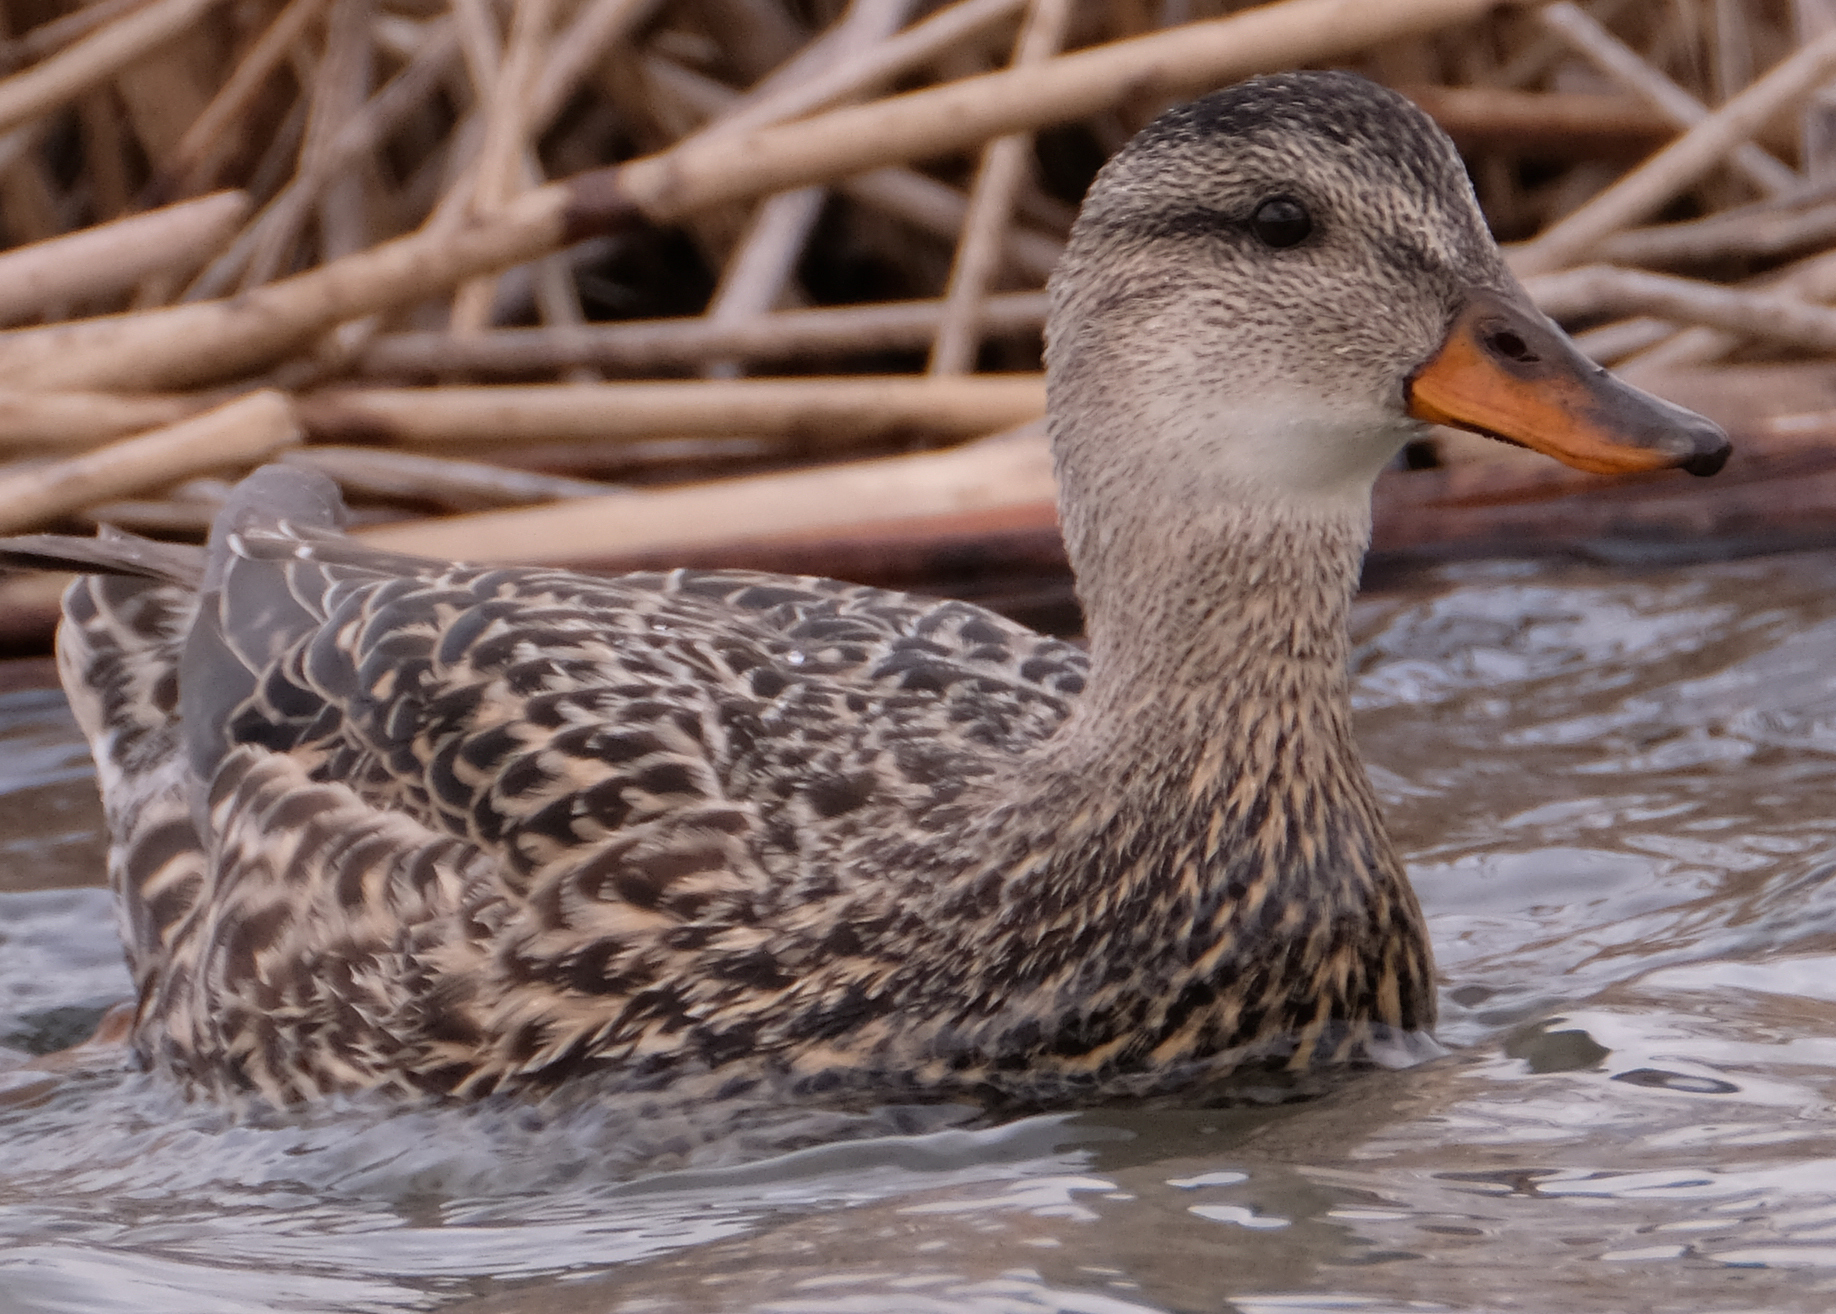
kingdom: Animalia
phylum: Chordata
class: Aves
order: Anseriformes
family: Anatidae
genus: Mareca
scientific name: Mareca strepera
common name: Gadwall
